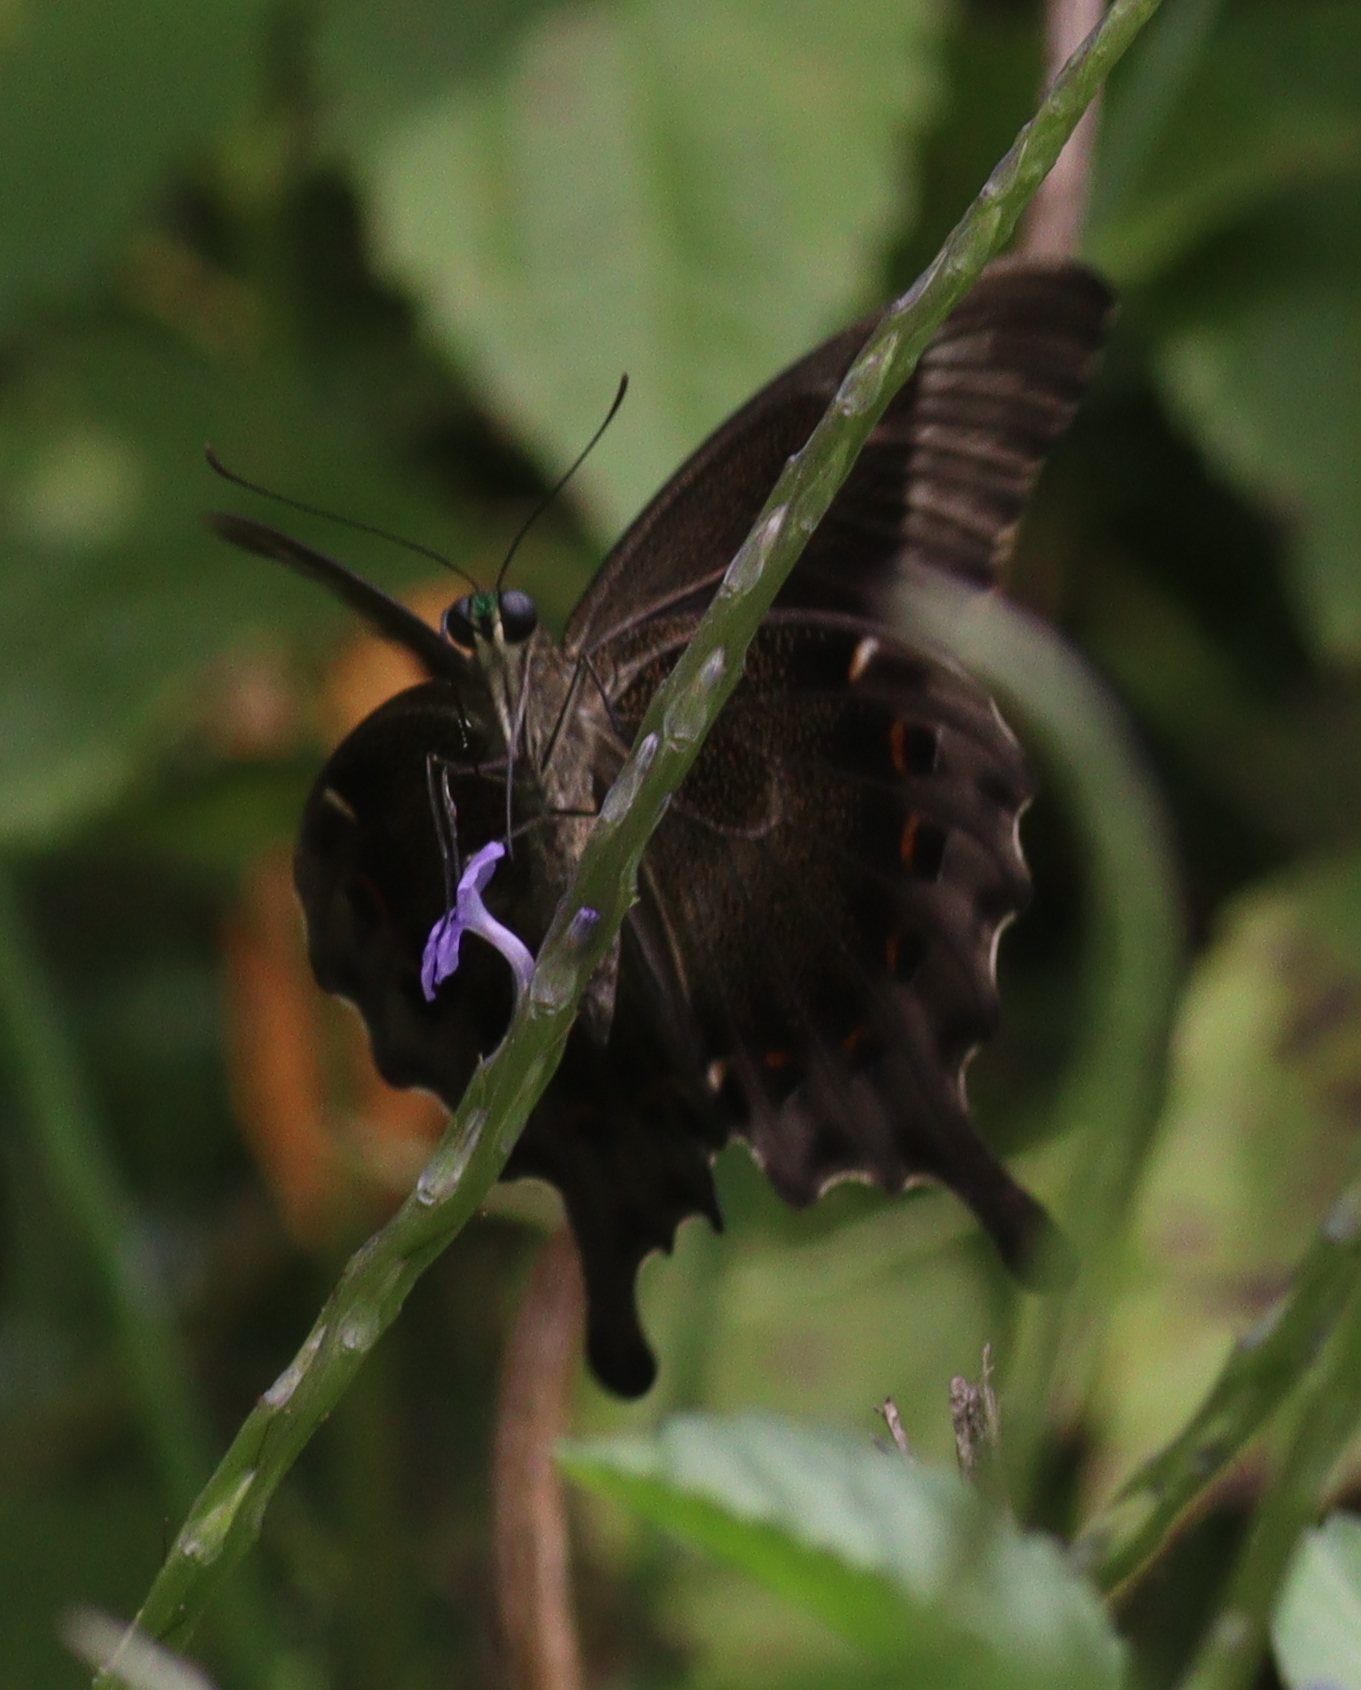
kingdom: Animalia
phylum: Arthropoda
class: Insecta
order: Lepidoptera
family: Papilionidae
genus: Papilio
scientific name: Papilio peranthus
